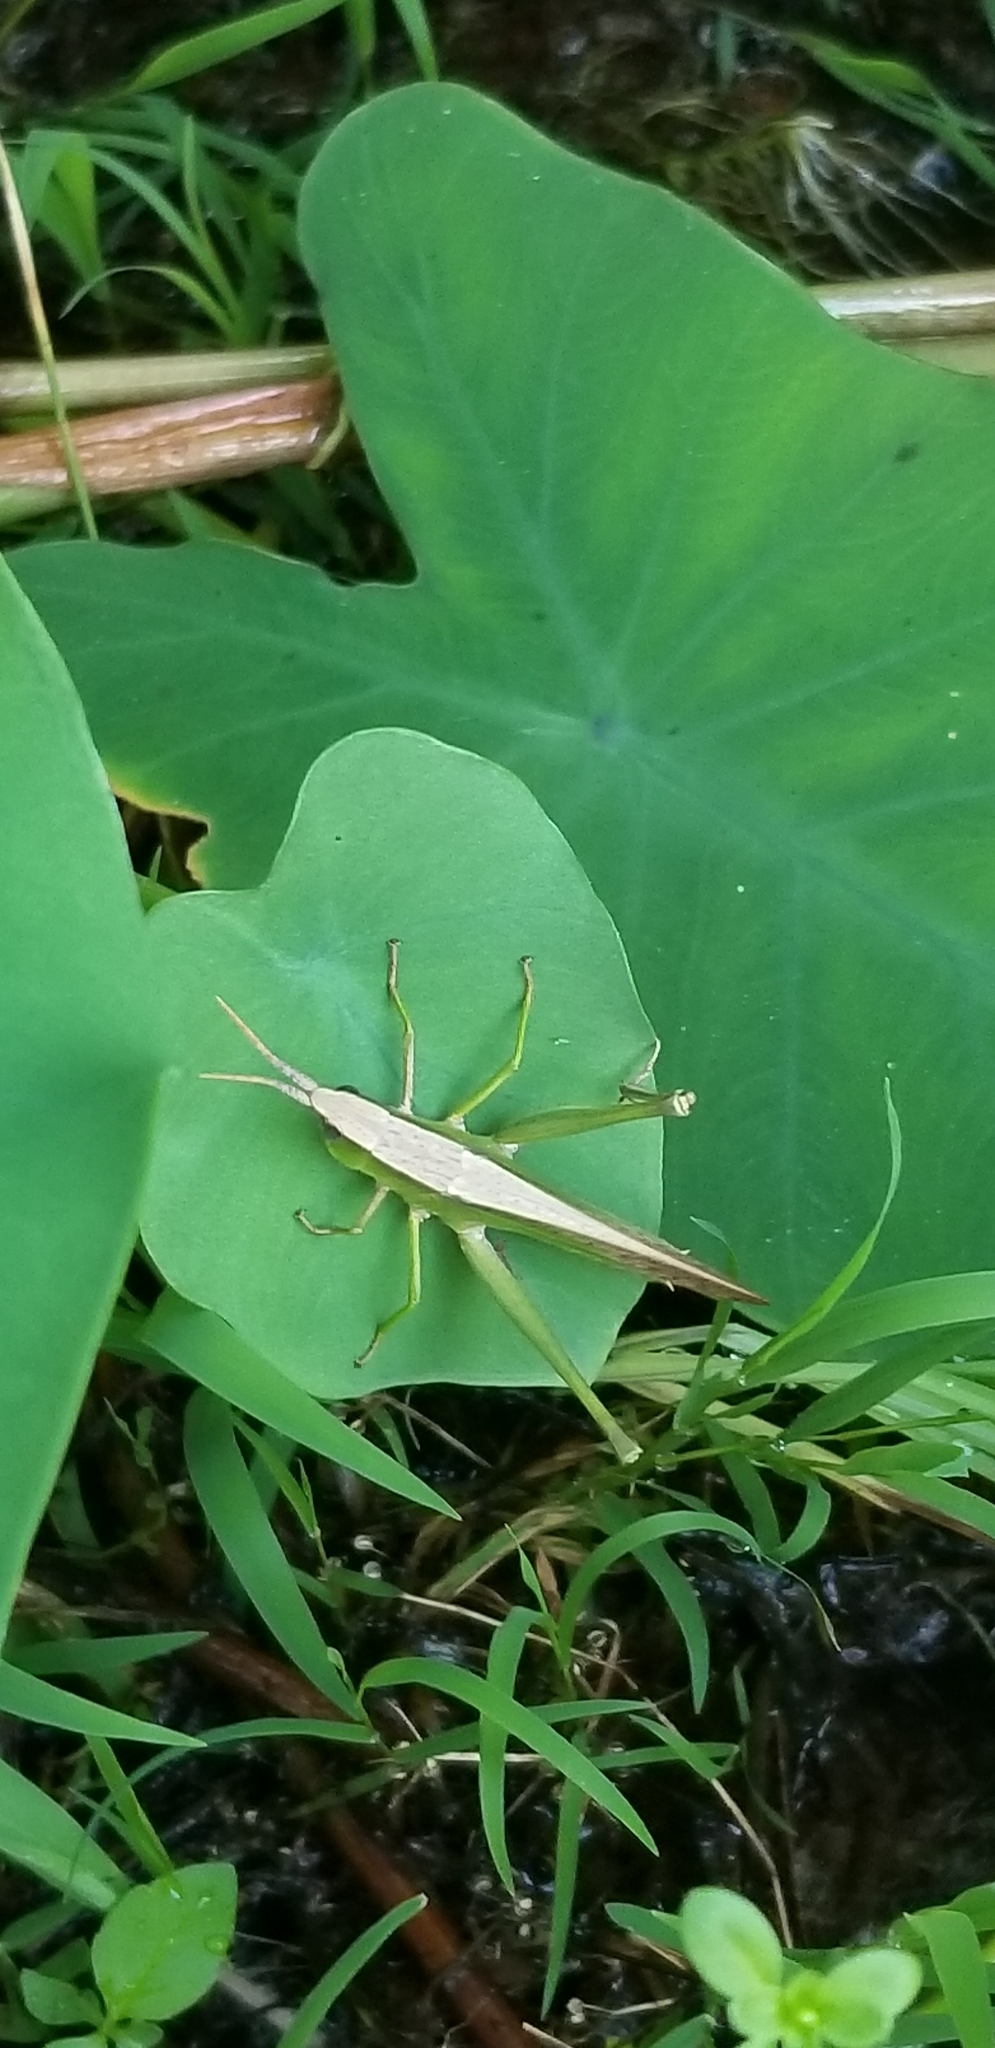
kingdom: Animalia
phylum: Arthropoda
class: Insecta
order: Orthoptera
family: Acrididae
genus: Metaleptea
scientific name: Metaleptea brevicornis
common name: Clipped-wing grasshopper
